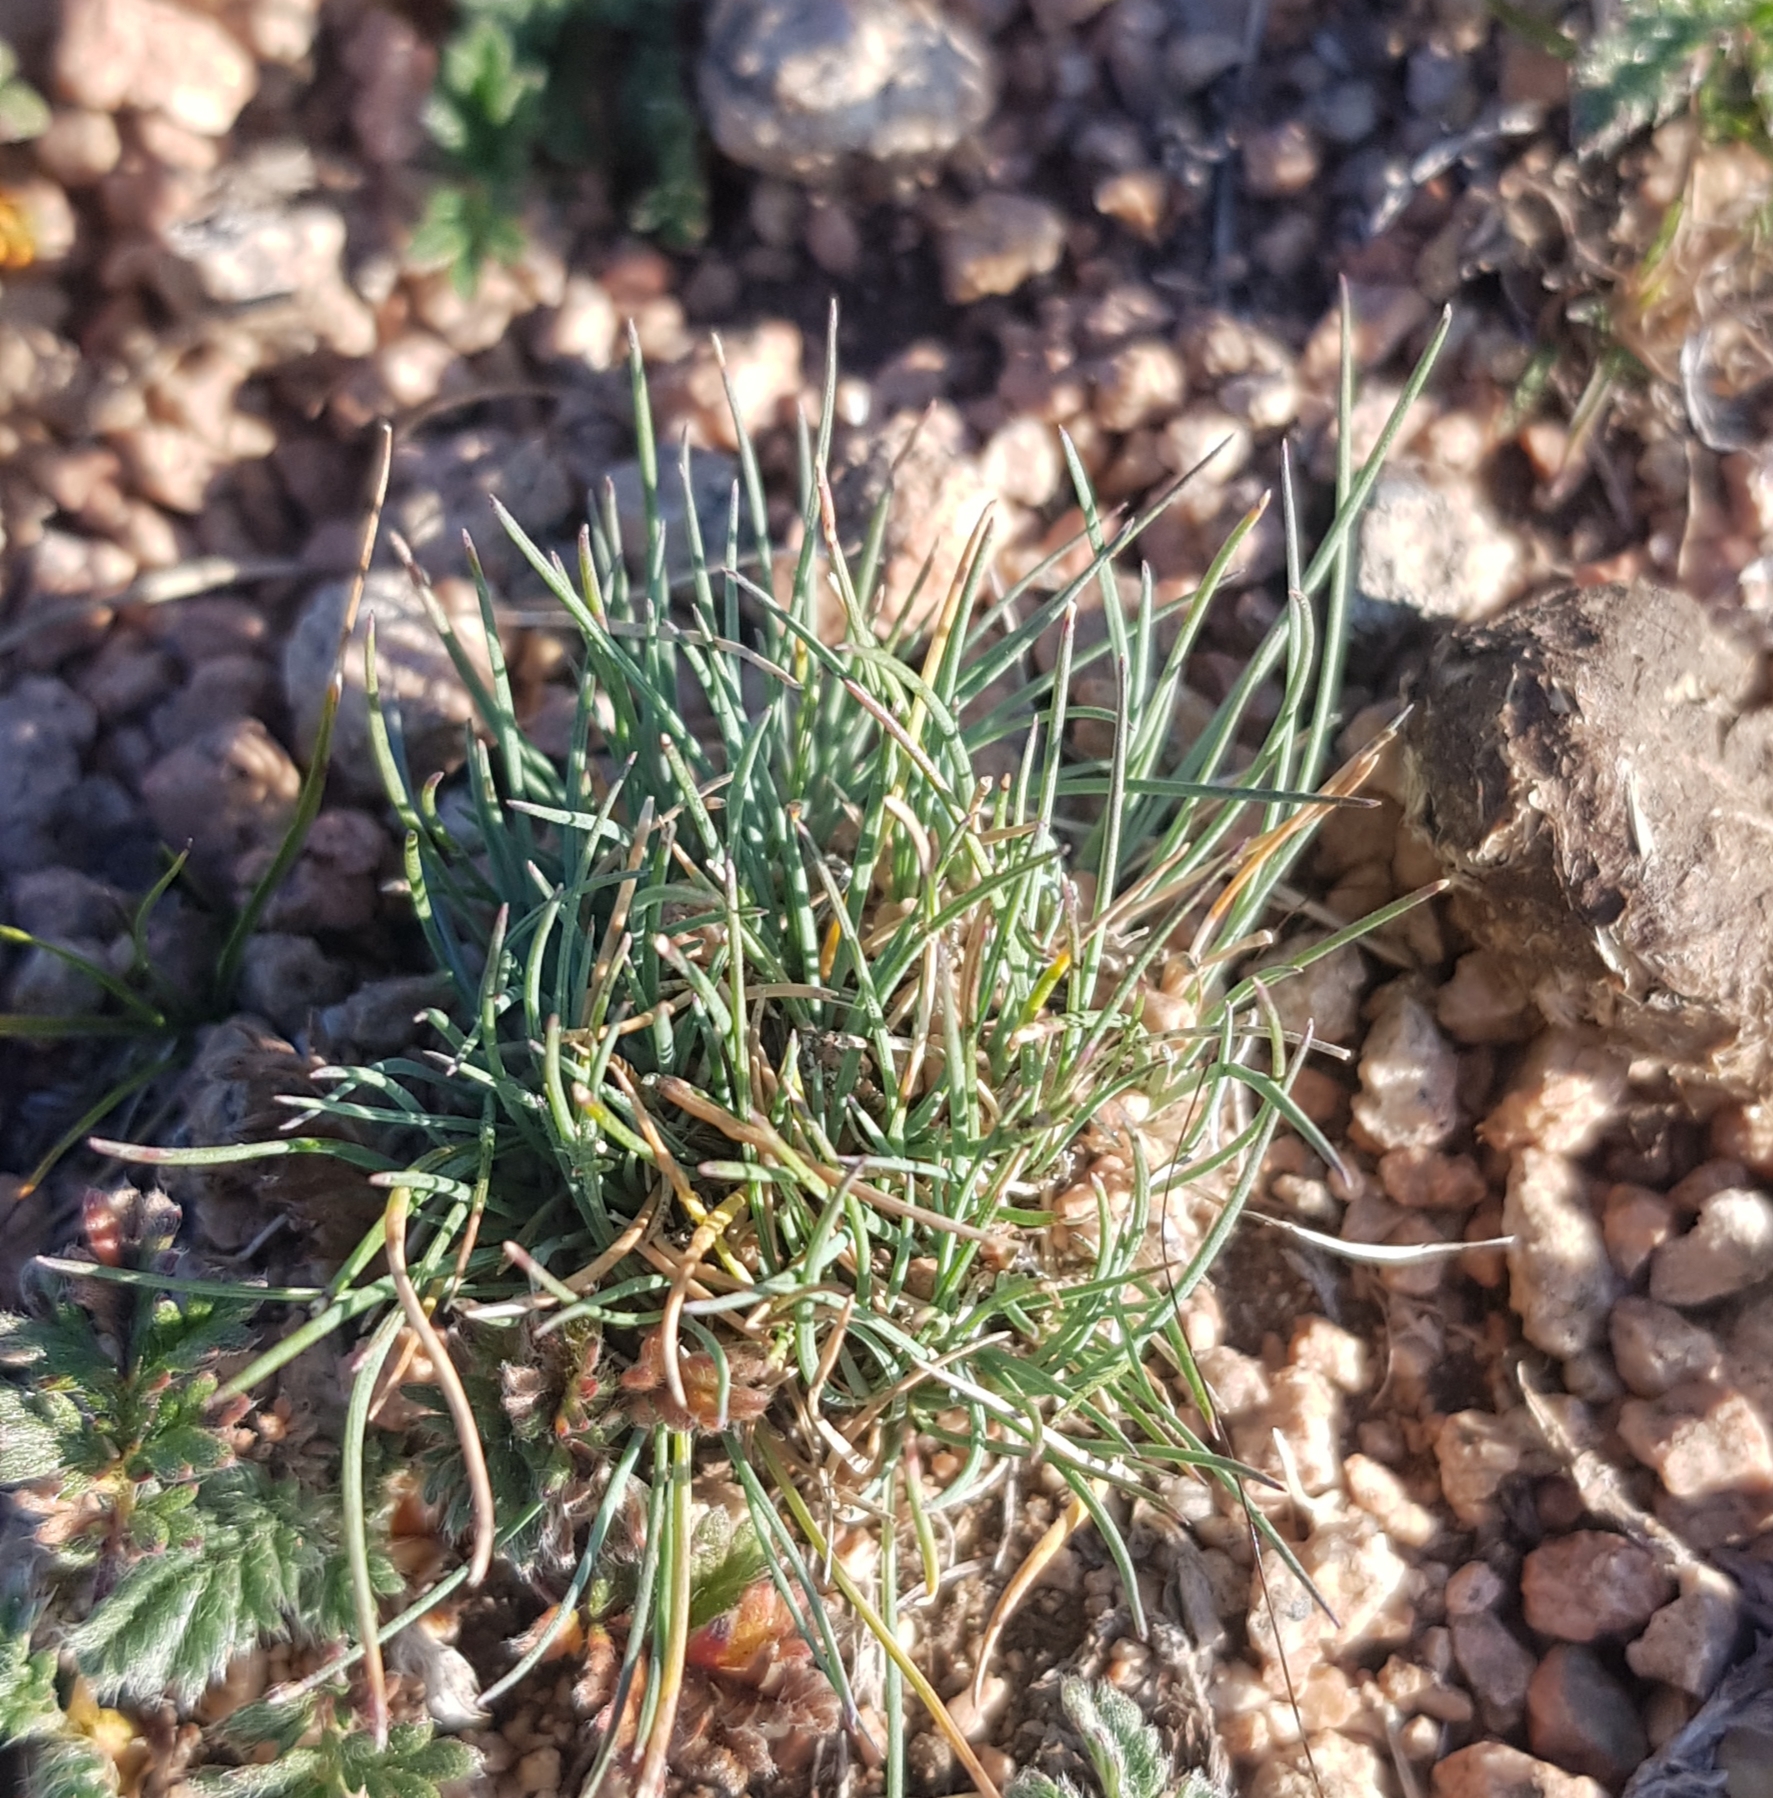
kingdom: Plantae
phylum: Tracheophyta
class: Liliopsida
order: Poales
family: Poaceae
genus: Festuca
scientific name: Festuca lenensis
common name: Lena river fescue
